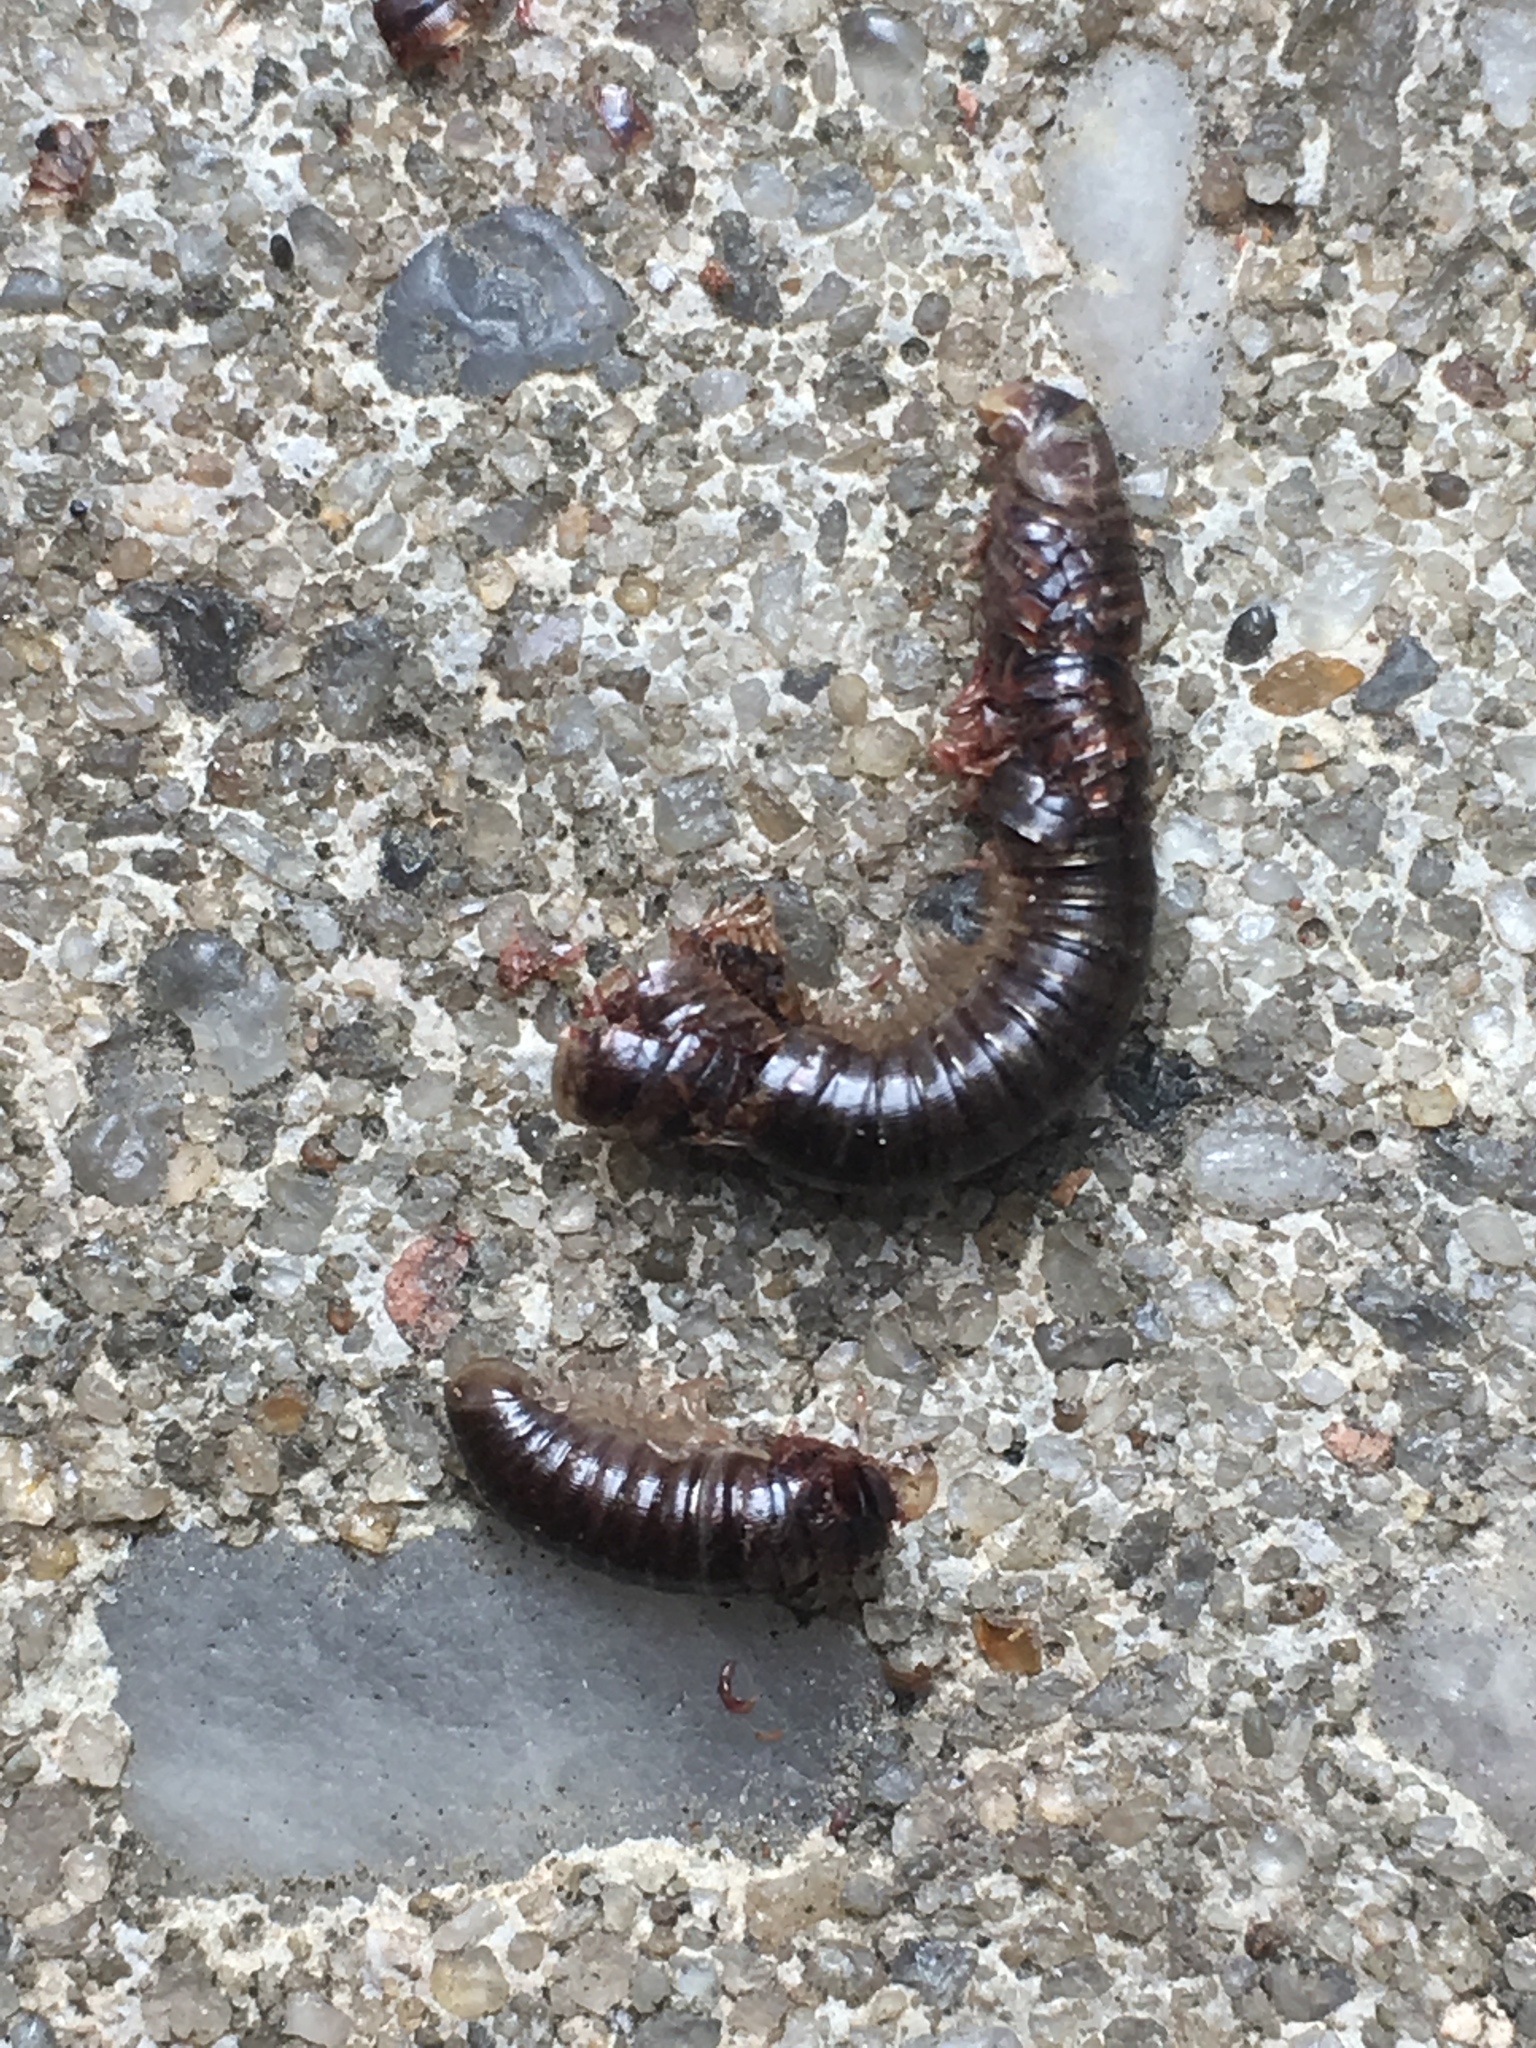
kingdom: Animalia
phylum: Arthropoda
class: Diplopoda
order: Julida
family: Julidae
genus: Cylindroiulus
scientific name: Cylindroiulus caeruleocinctus
